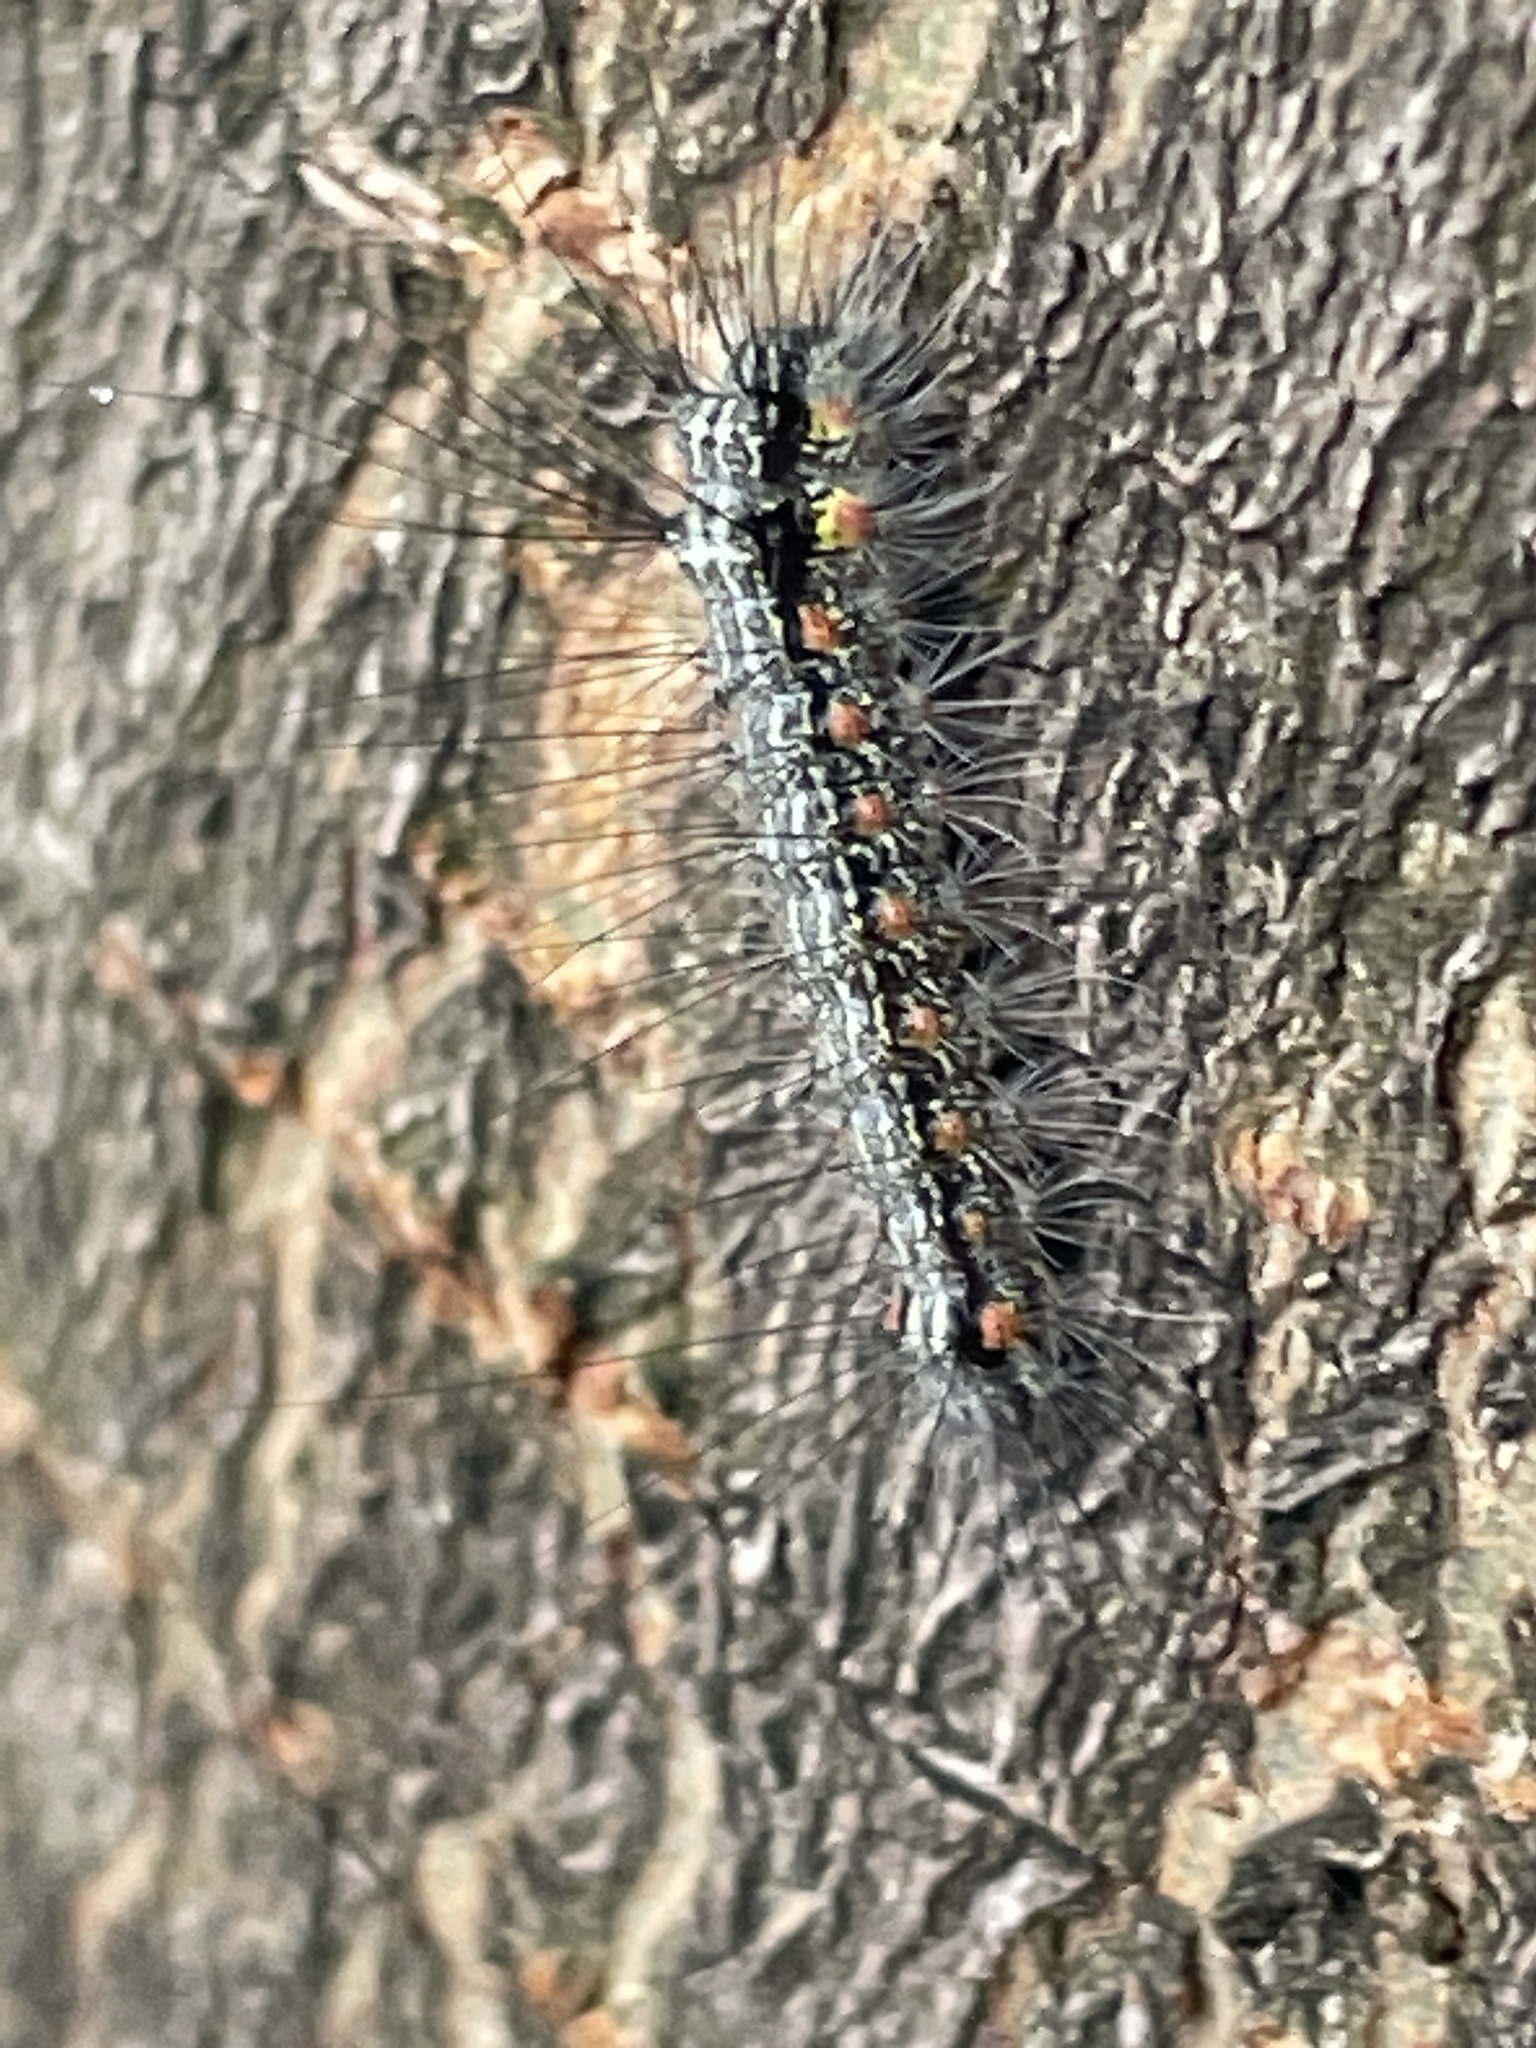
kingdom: Animalia
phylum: Arthropoda
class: Insecta
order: Lepidoptera
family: Erebidae
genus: Anestia
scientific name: Anestia
